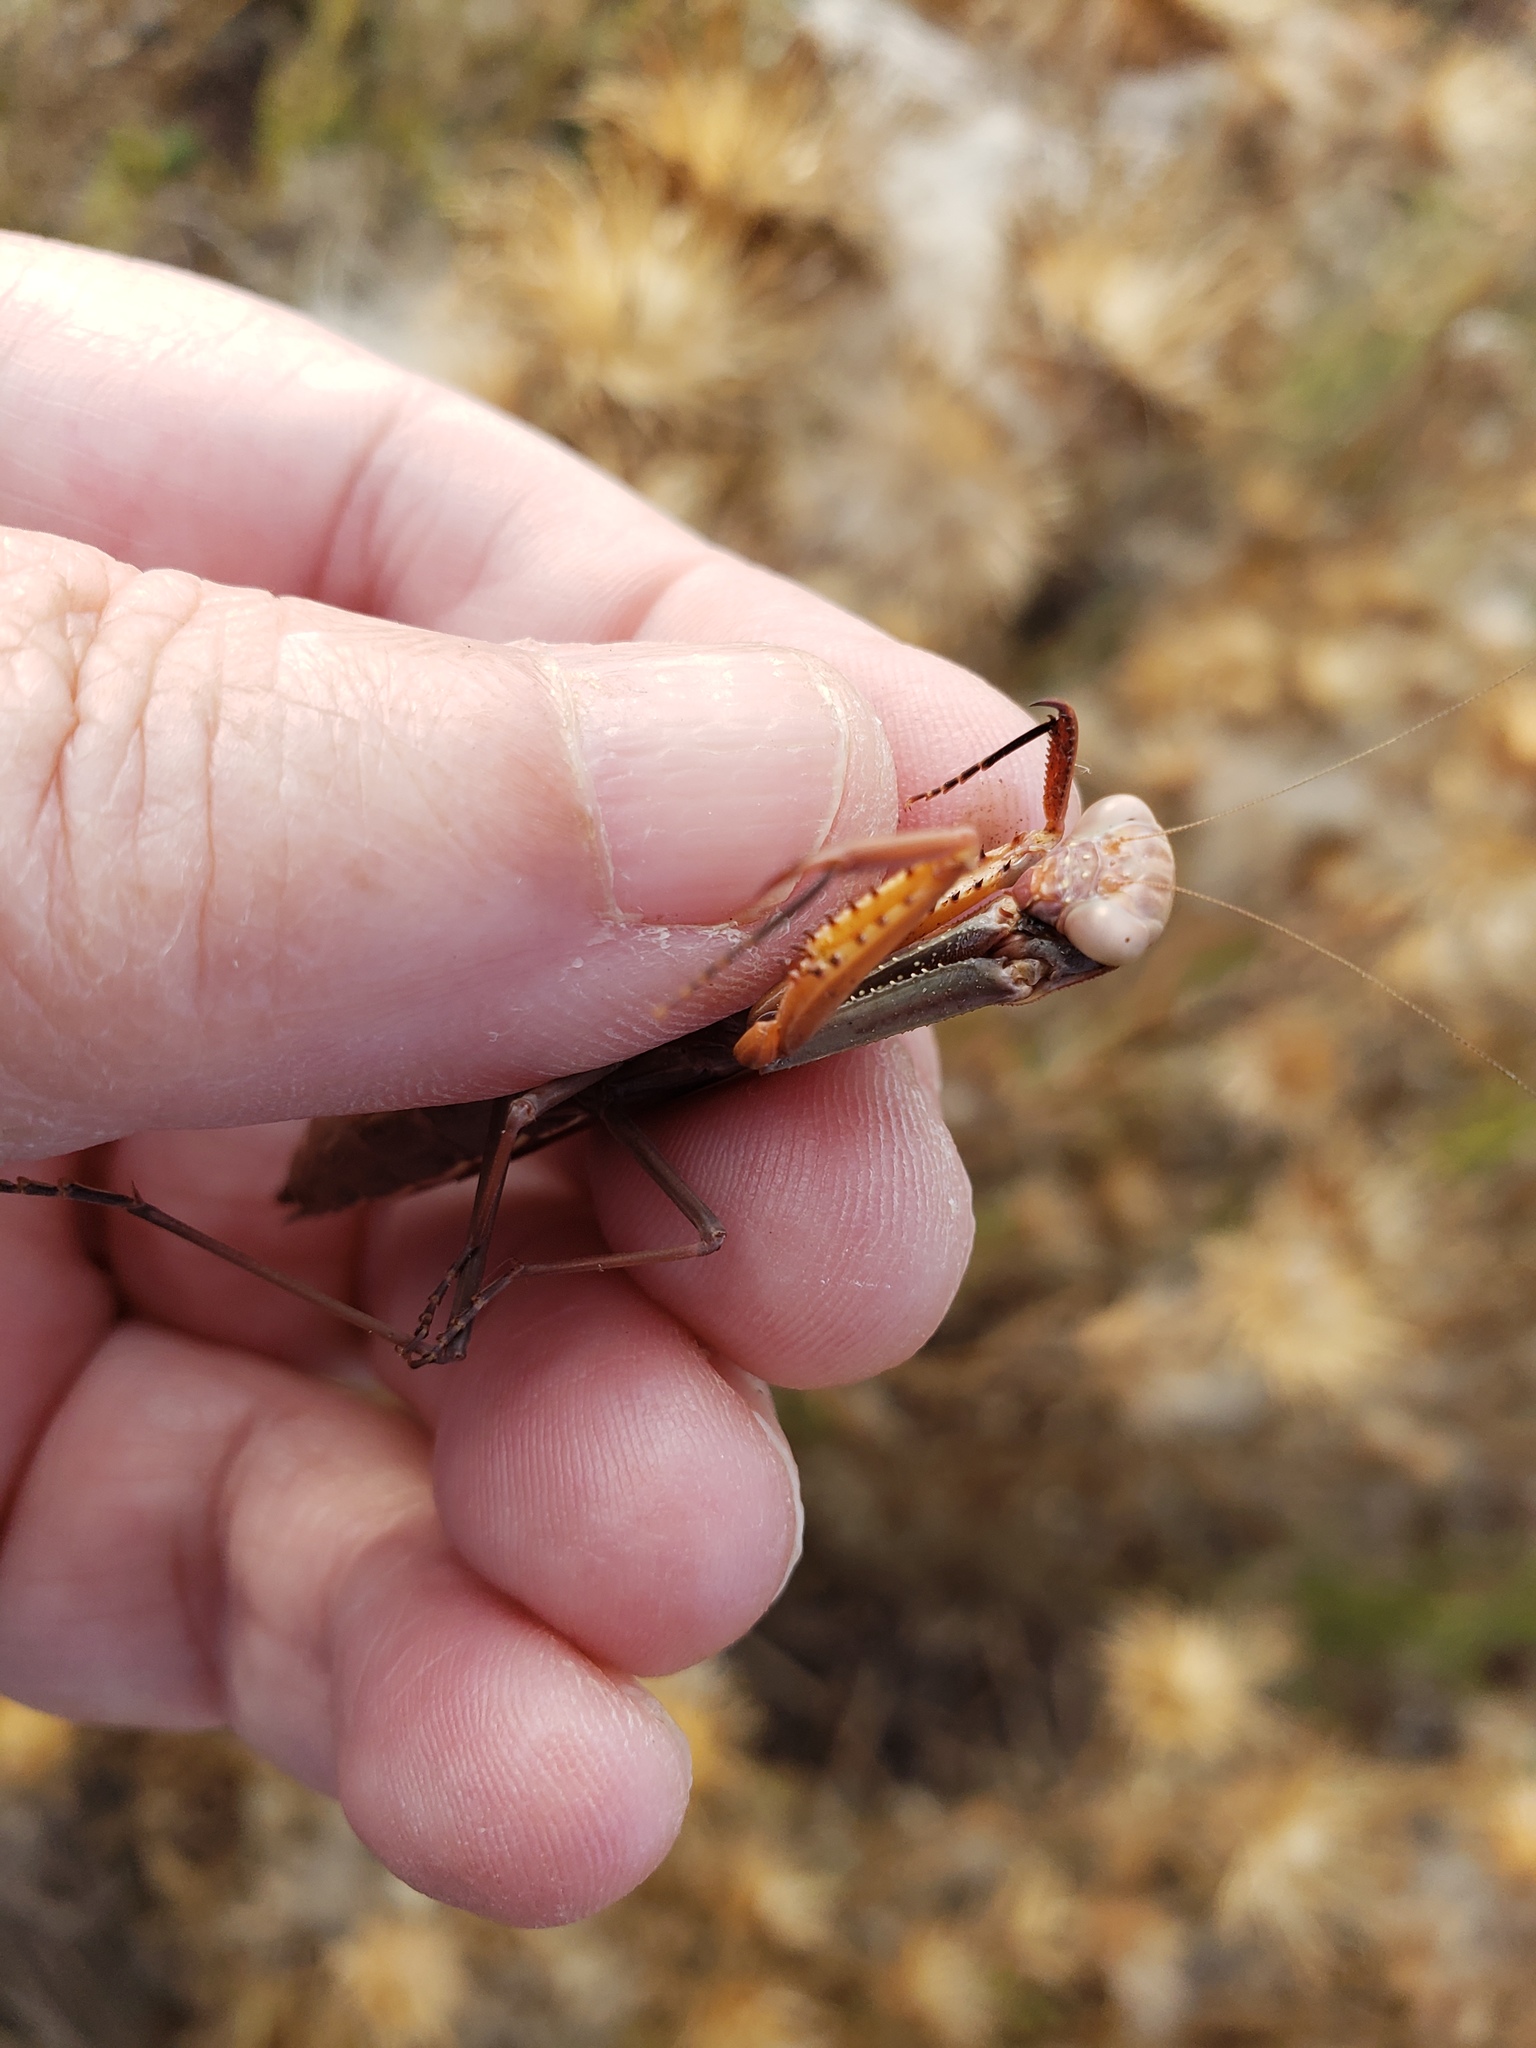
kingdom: Animalia
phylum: Arthropoda
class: Insecta
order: Mantodea
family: Eremiaphilidae
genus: Iris
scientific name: Iris oratoria
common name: Mediterranean mantis
